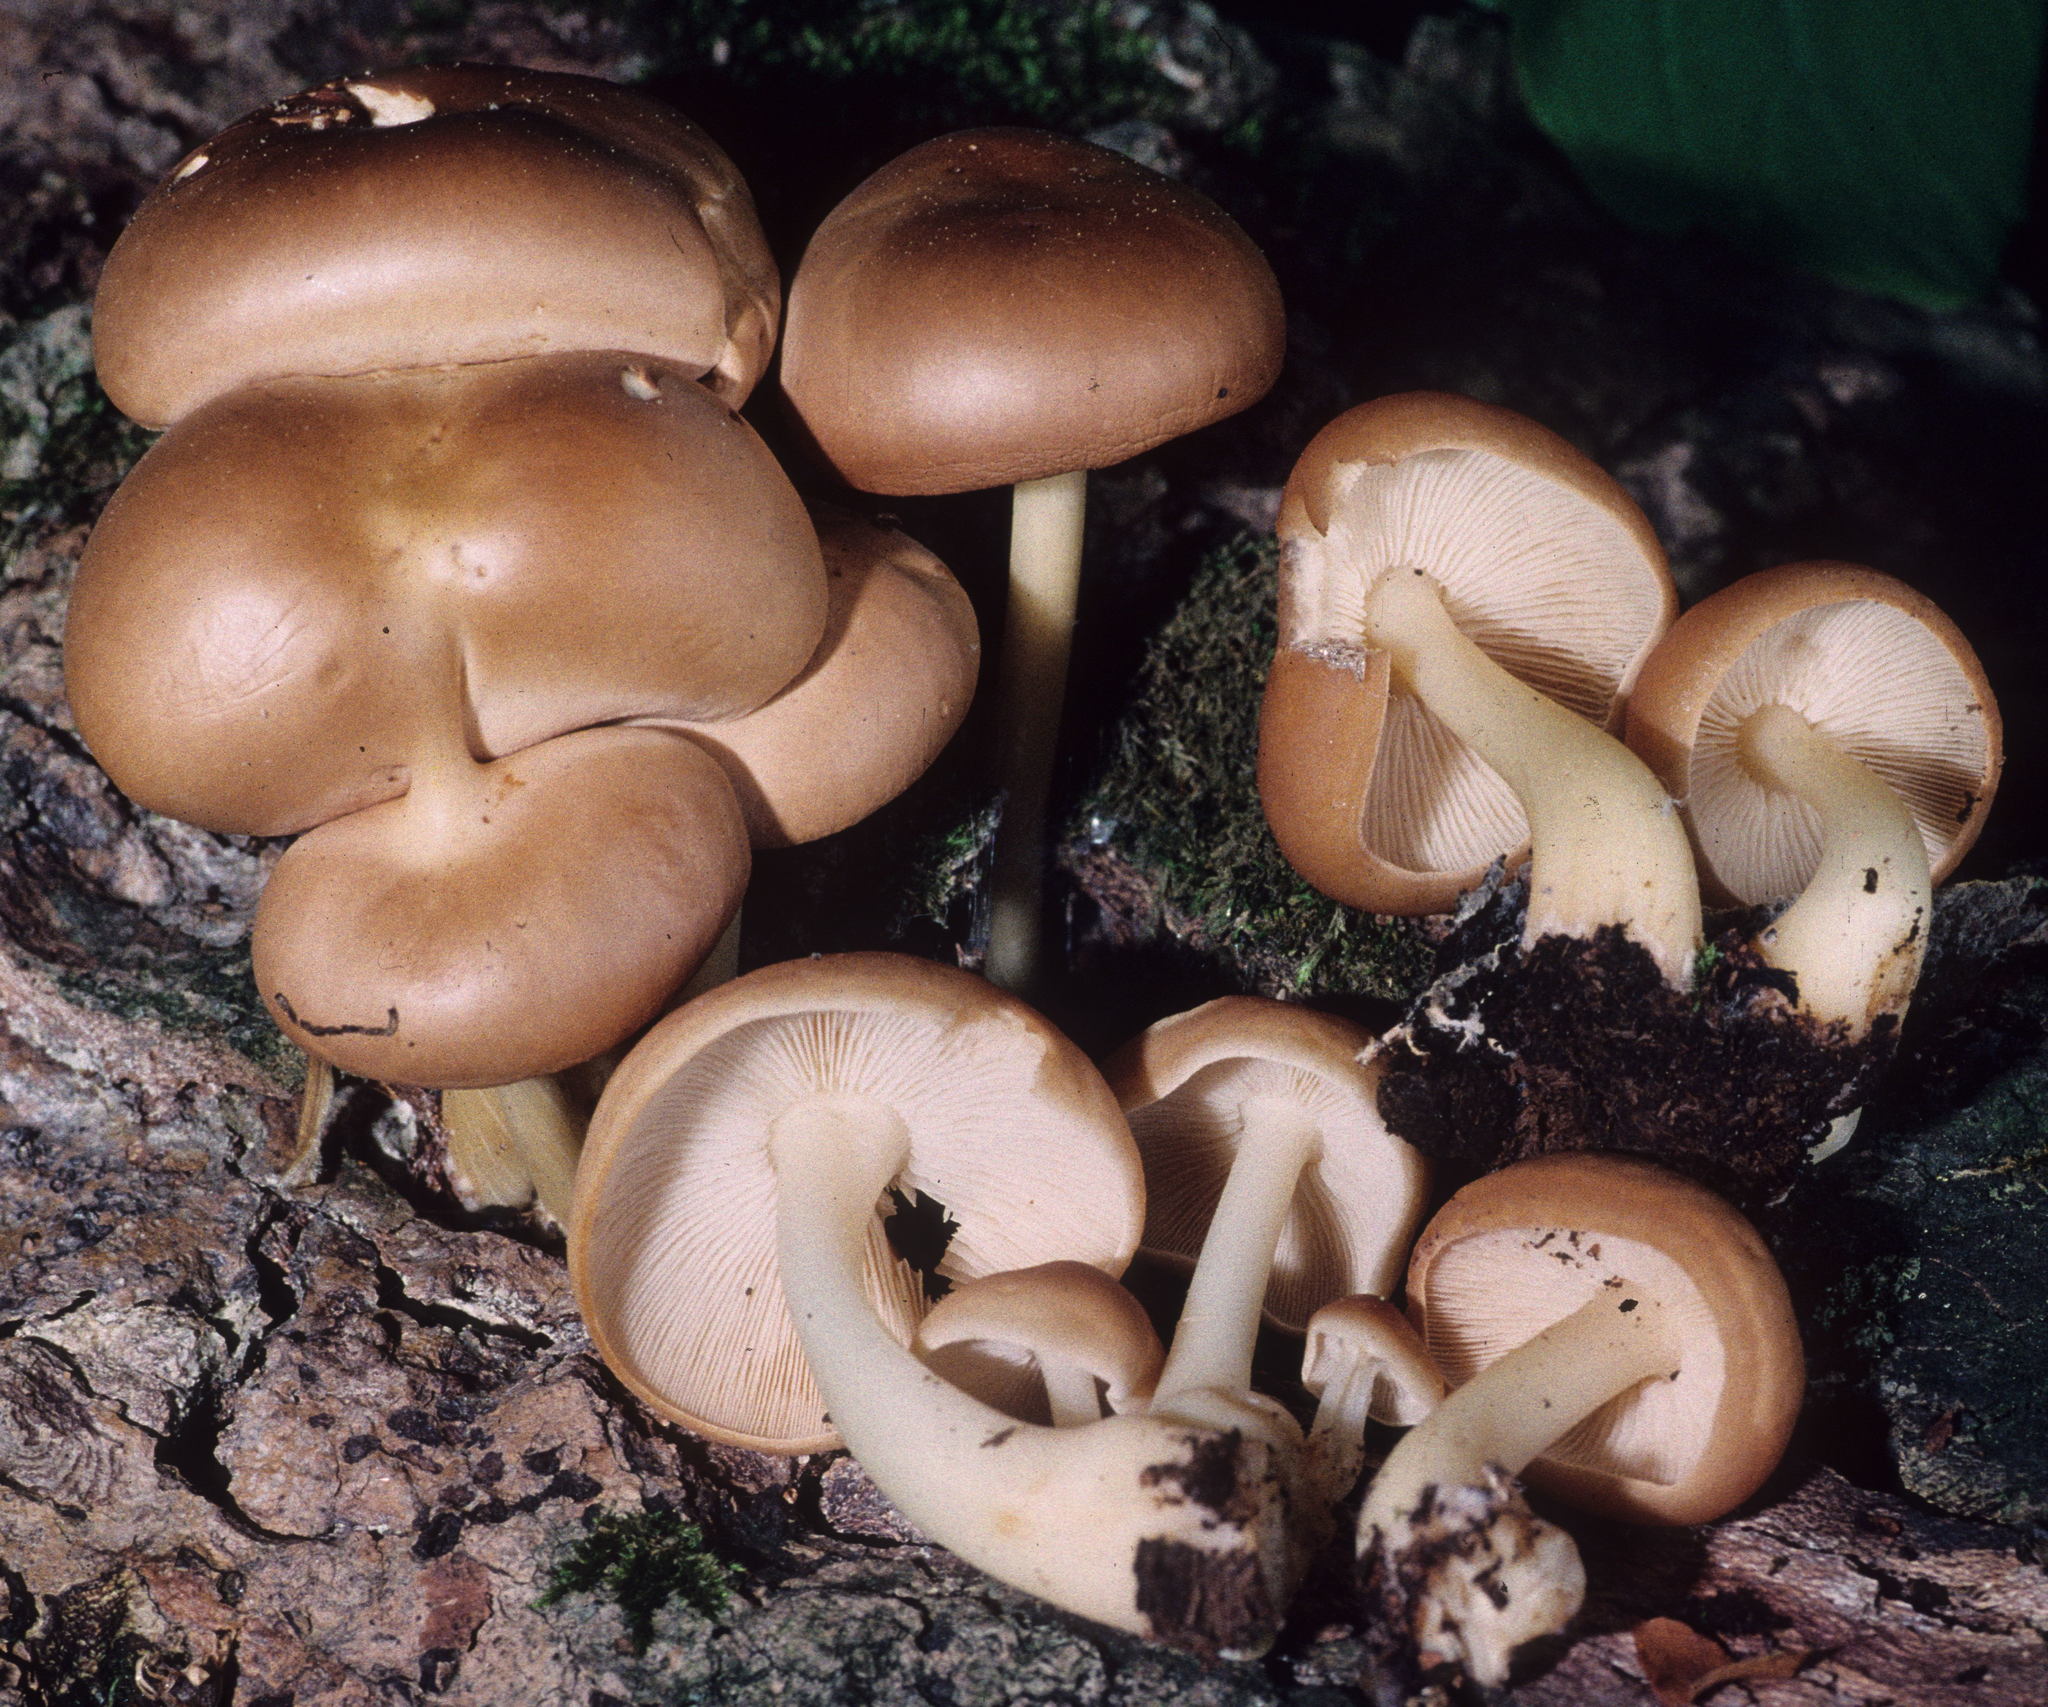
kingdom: Fungi
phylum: Basidiomycota
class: Agaricomycetes
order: Agaricales
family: Omphalotaceae
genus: Gymnopus
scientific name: Gymnopus dryophilus
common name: Penny top
